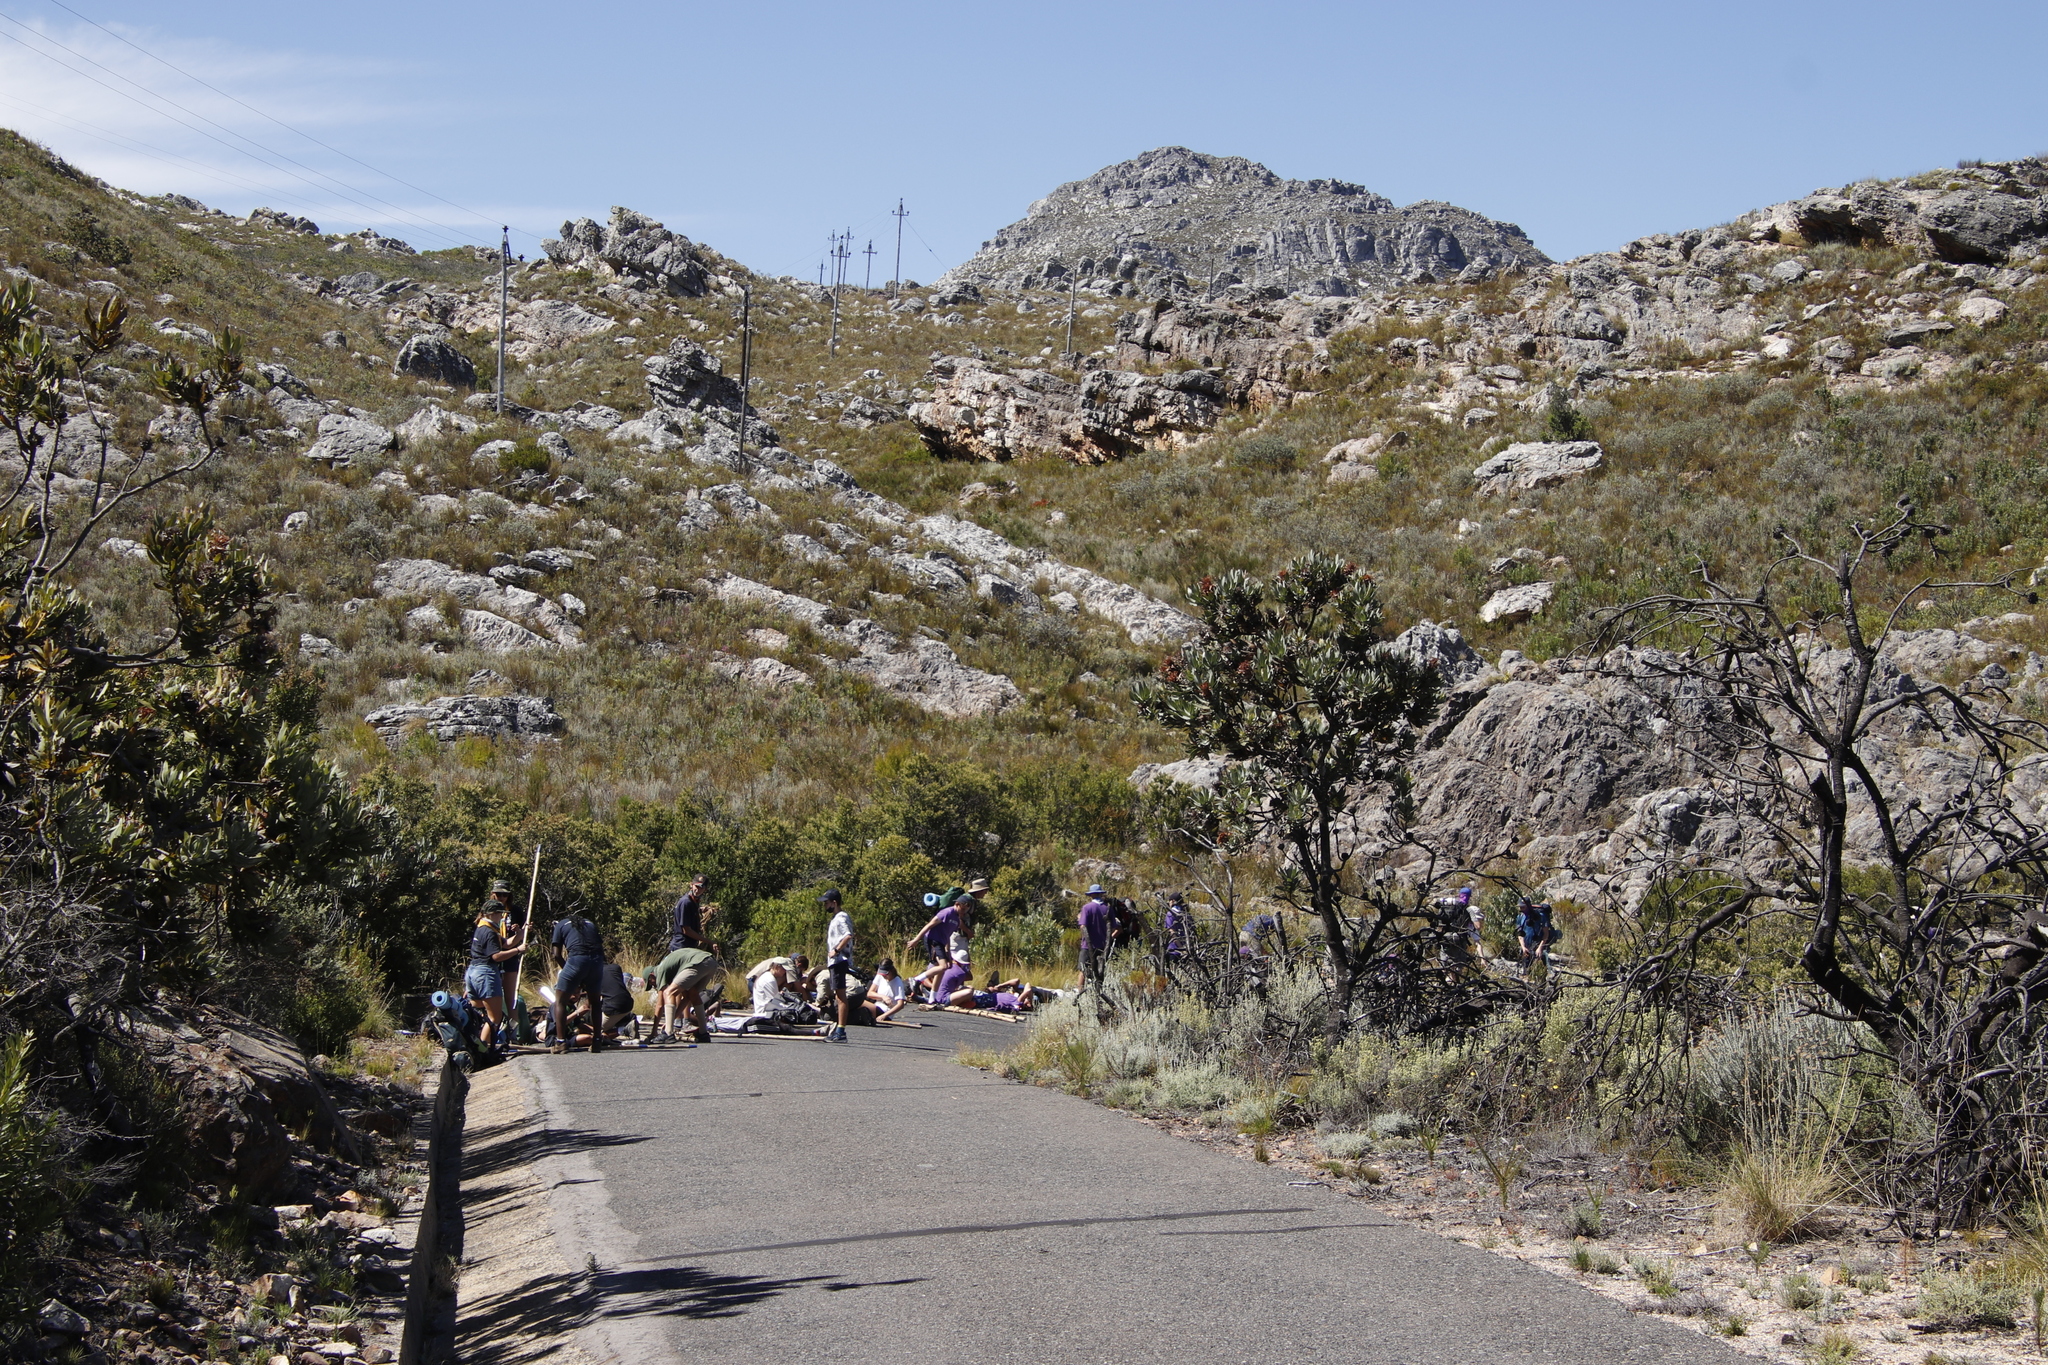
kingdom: Plantae
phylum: Tracheophyta
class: Magnoliopsida
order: Proteales
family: Proteaceae
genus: Protea
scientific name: Protea laurifolia
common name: Grey-leaf sugarbsh
